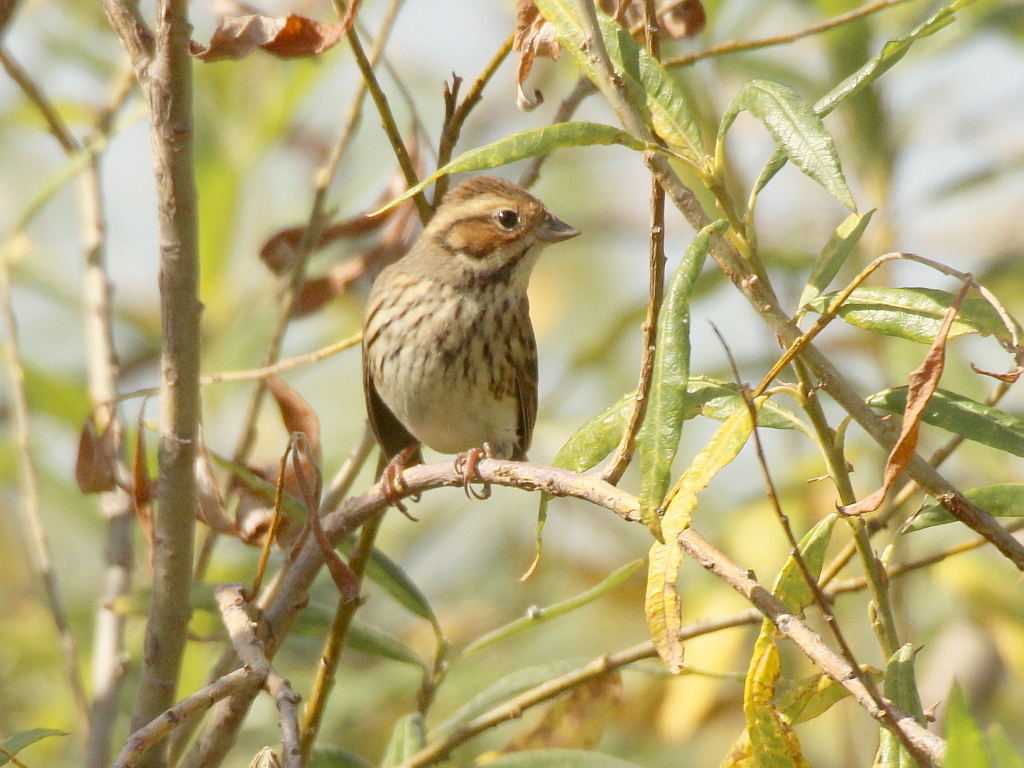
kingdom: Animalia
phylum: Chordata
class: Aves
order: Passeriformes
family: Emberizidae
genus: Emberiza
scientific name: Emberiza pusilla
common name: Little bunting
